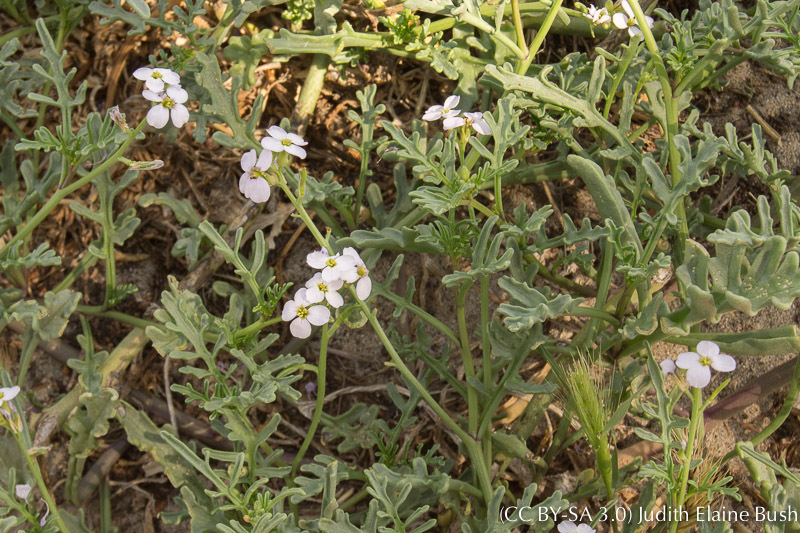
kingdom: Plantae
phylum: Tracheophyta
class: Magnoliopsida
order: Brassicales
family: Brassicaceae
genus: Cakile
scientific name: Cakile maritima
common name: Sea rocket
